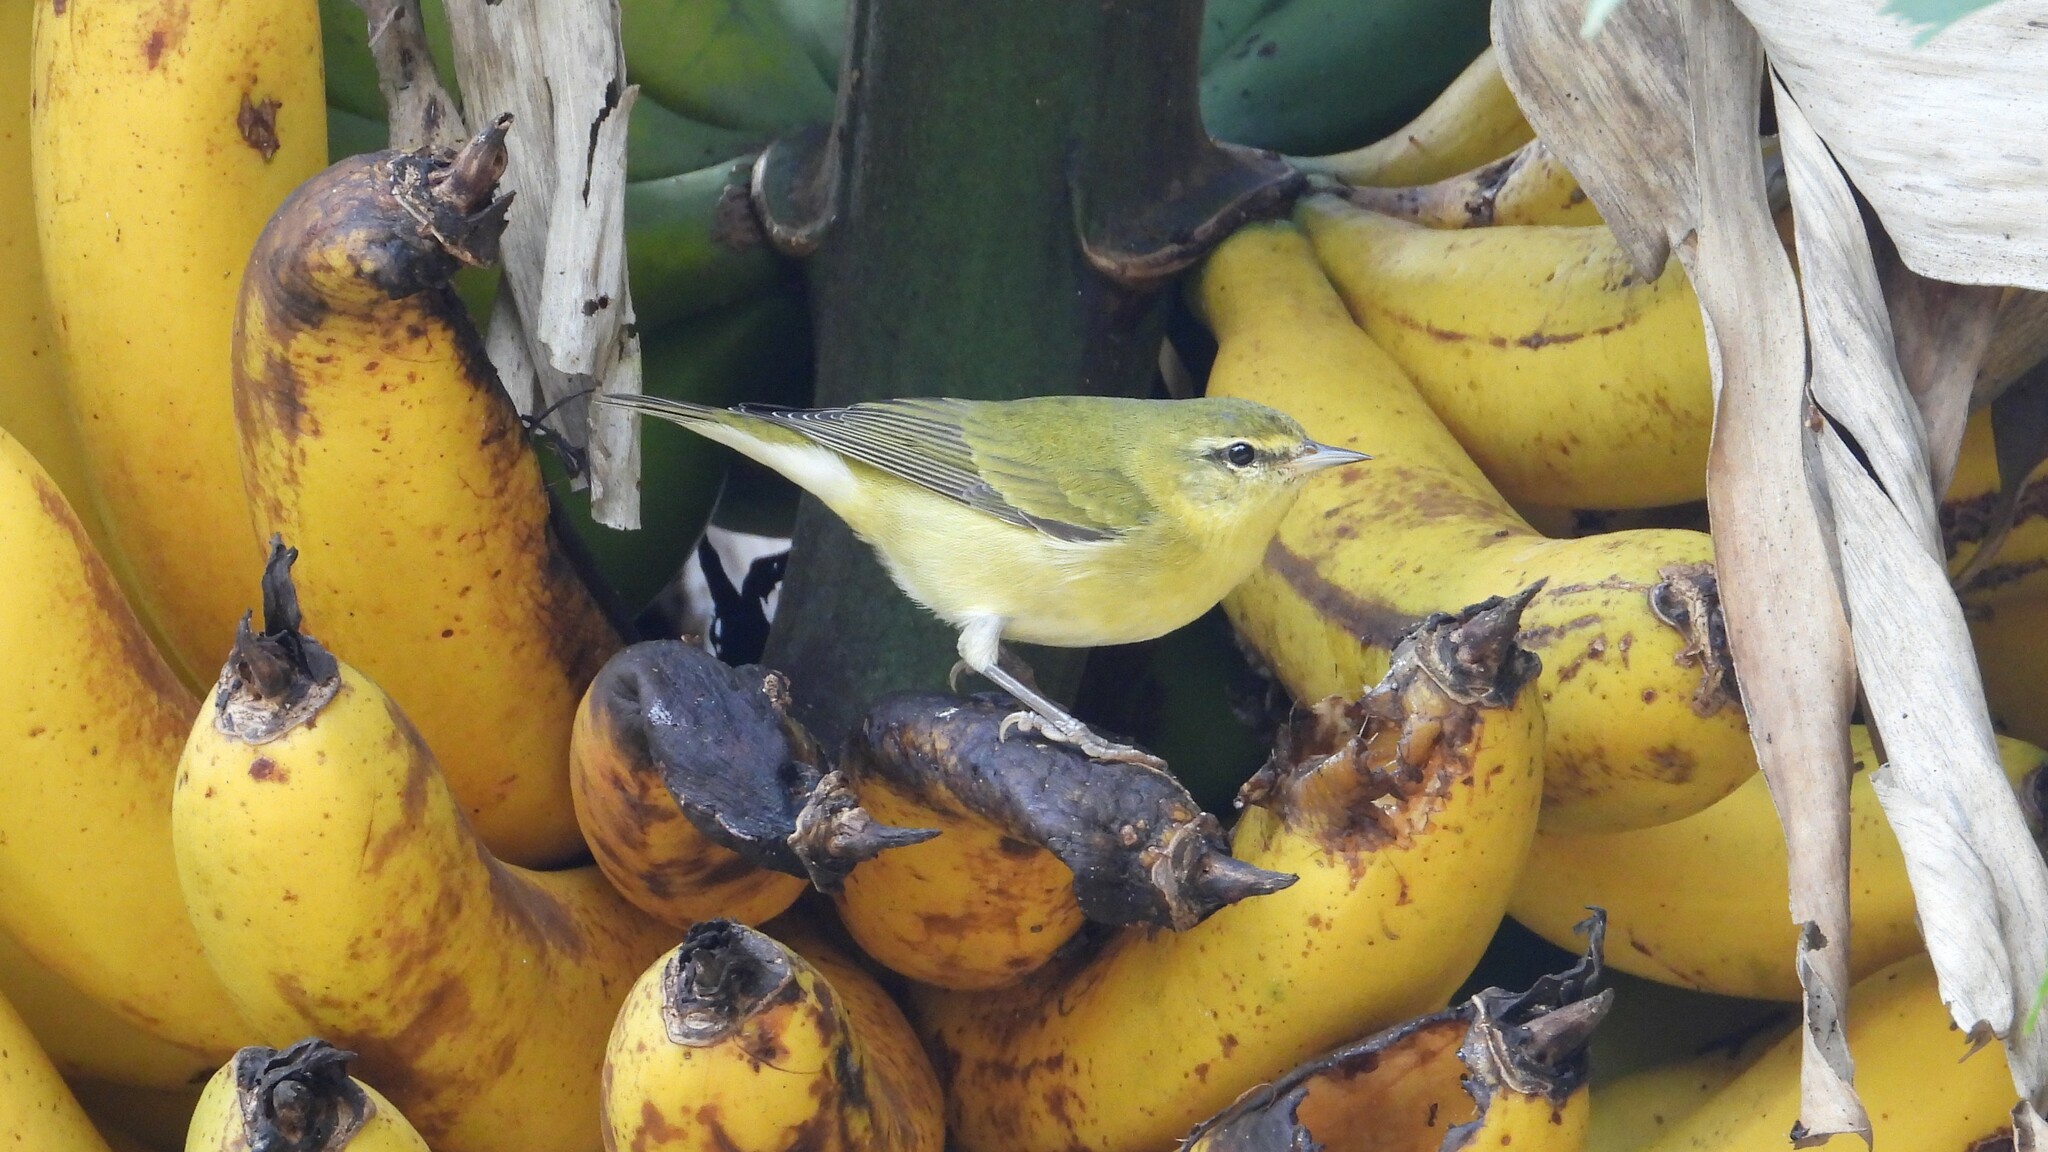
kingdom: Animalia
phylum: Chordata
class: Aves
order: Passeriformes
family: Parulidae
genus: Leiothlypis
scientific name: Leiothlypis peregrina
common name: Tennessee warbler
